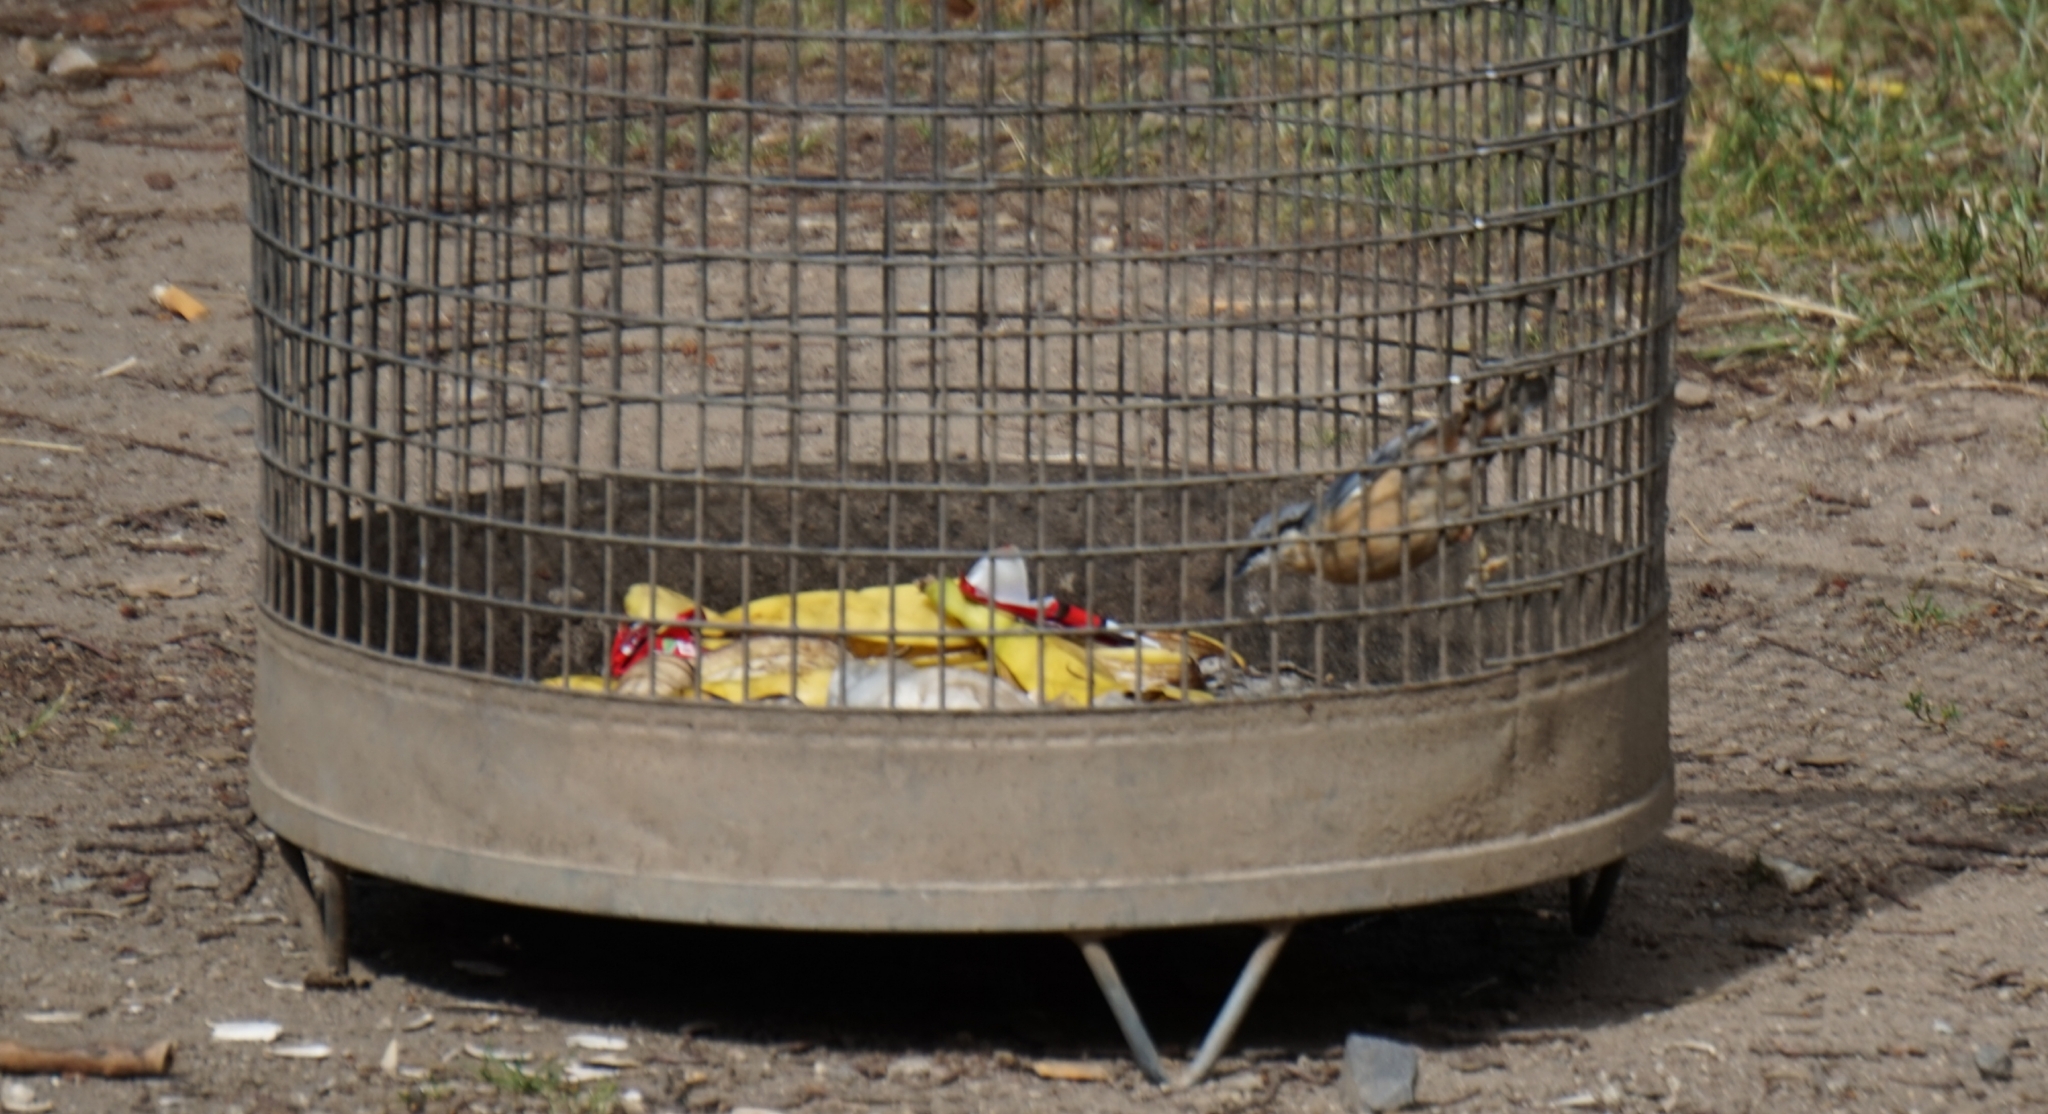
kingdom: Animalia
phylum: Chordata
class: Aves
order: Passeriformes
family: Sittidae
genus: Sitta
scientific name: Sitta europaea
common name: Eurasian nuthatch
